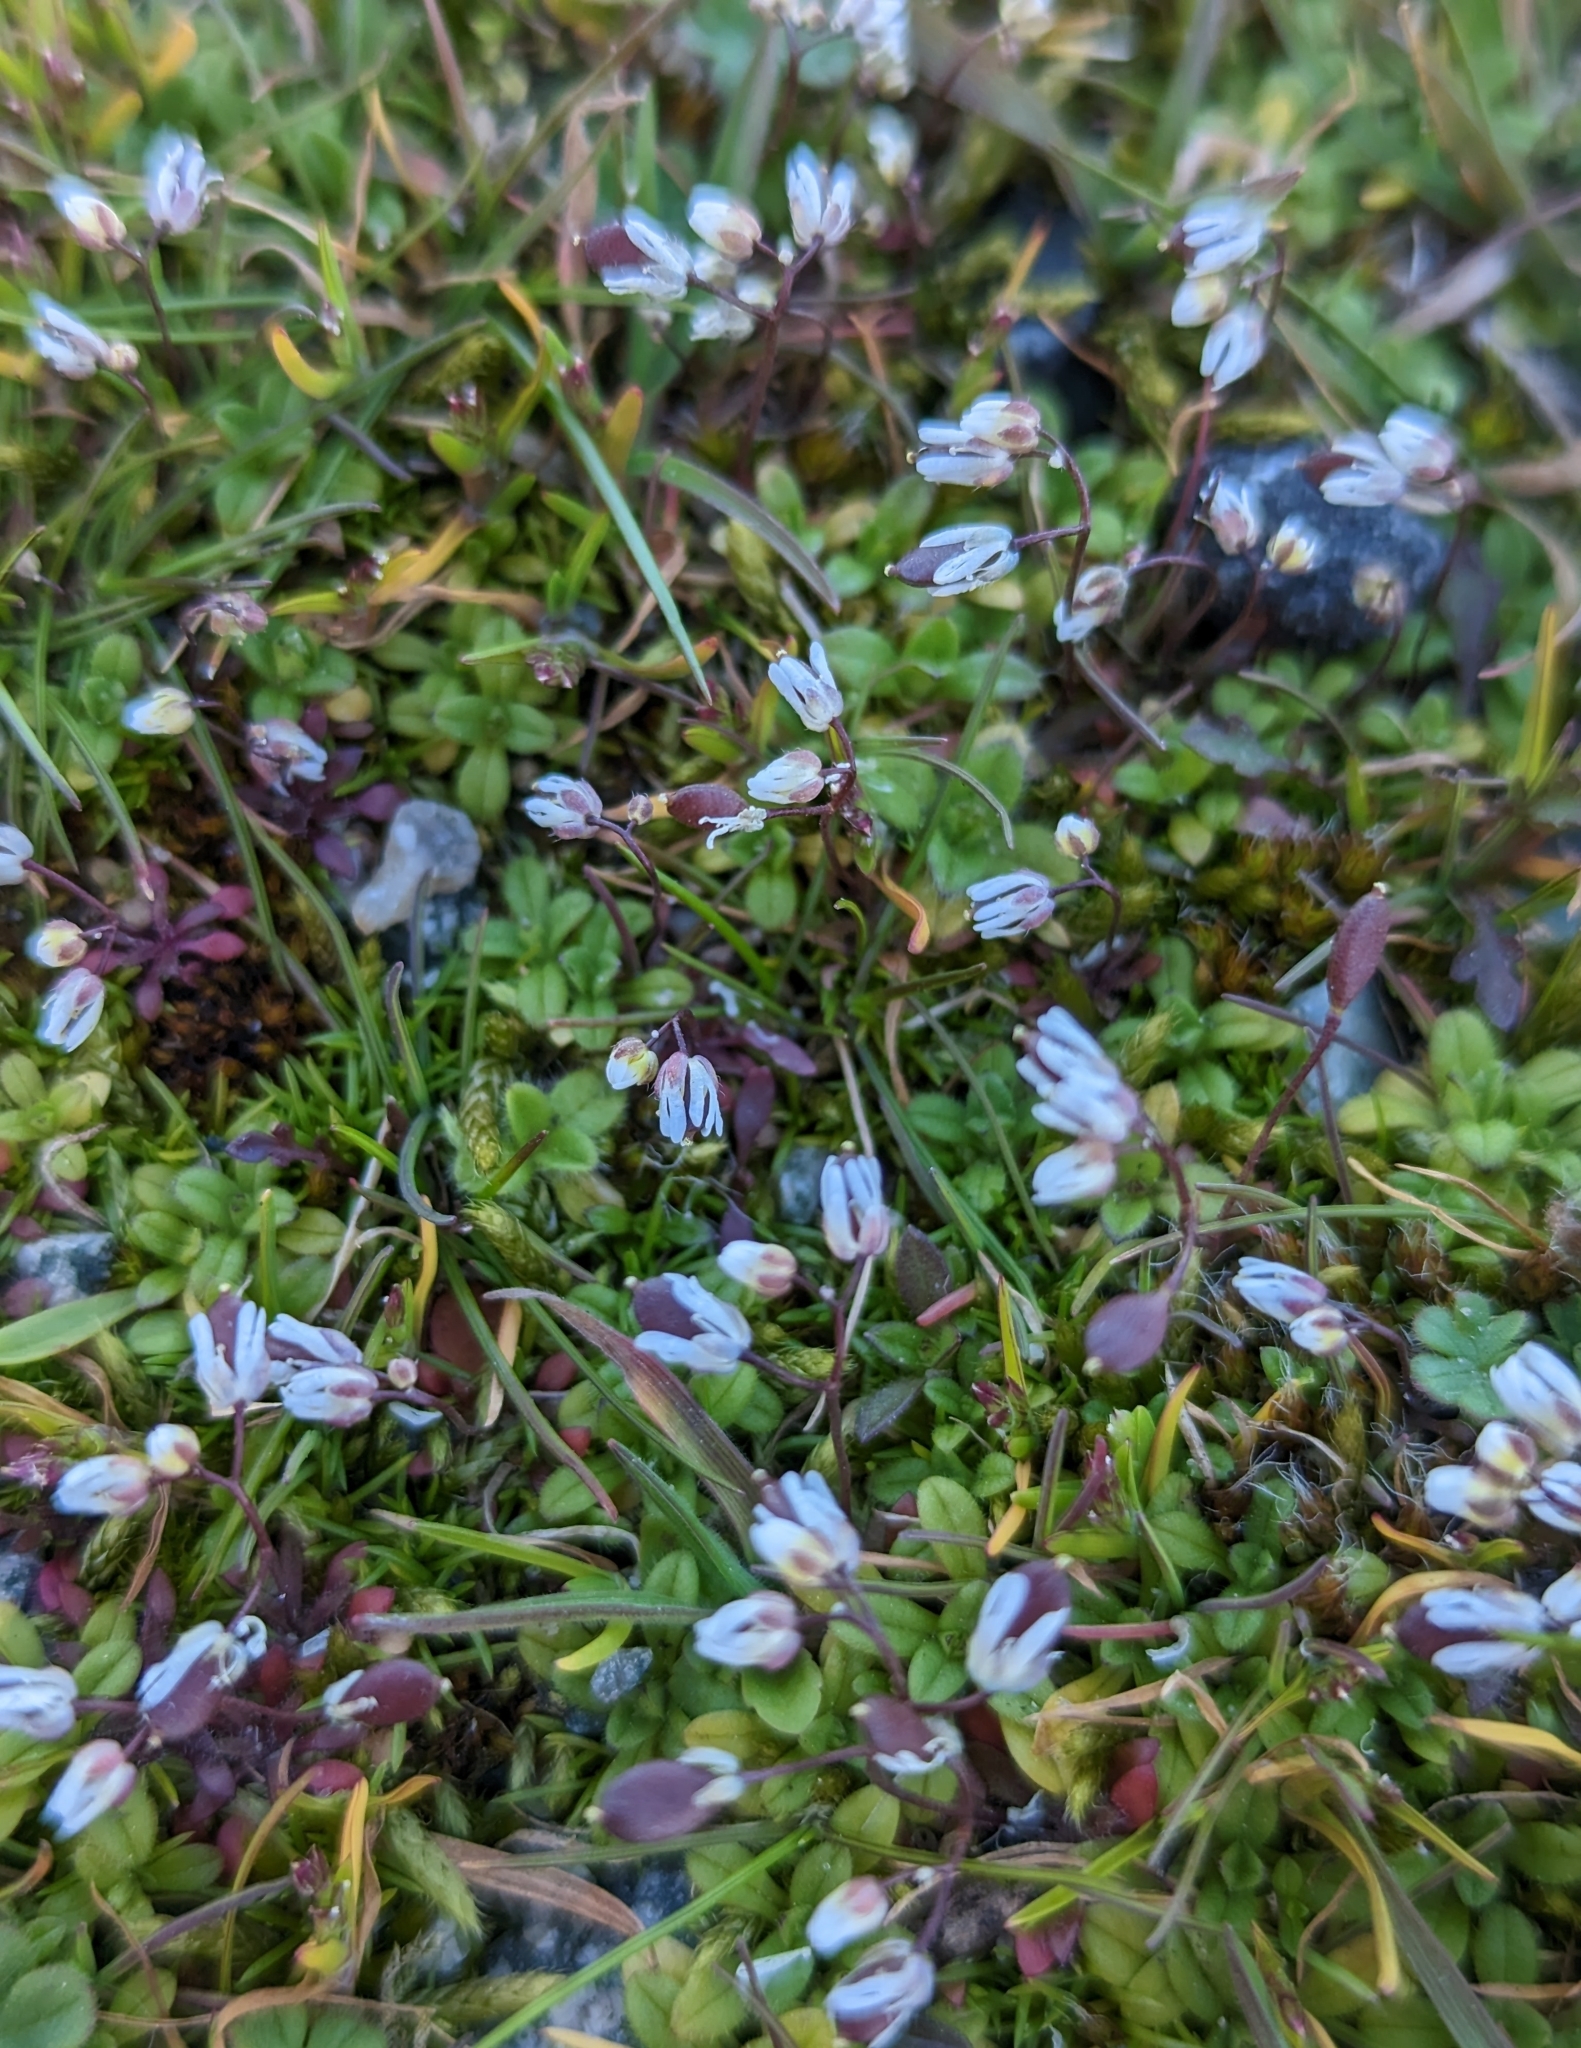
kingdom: Plantae
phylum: Tracheophyta
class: Magnoliopsida
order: Brassicales
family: Brassicaceae
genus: Draba
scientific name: Draba verna
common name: Spring draba
